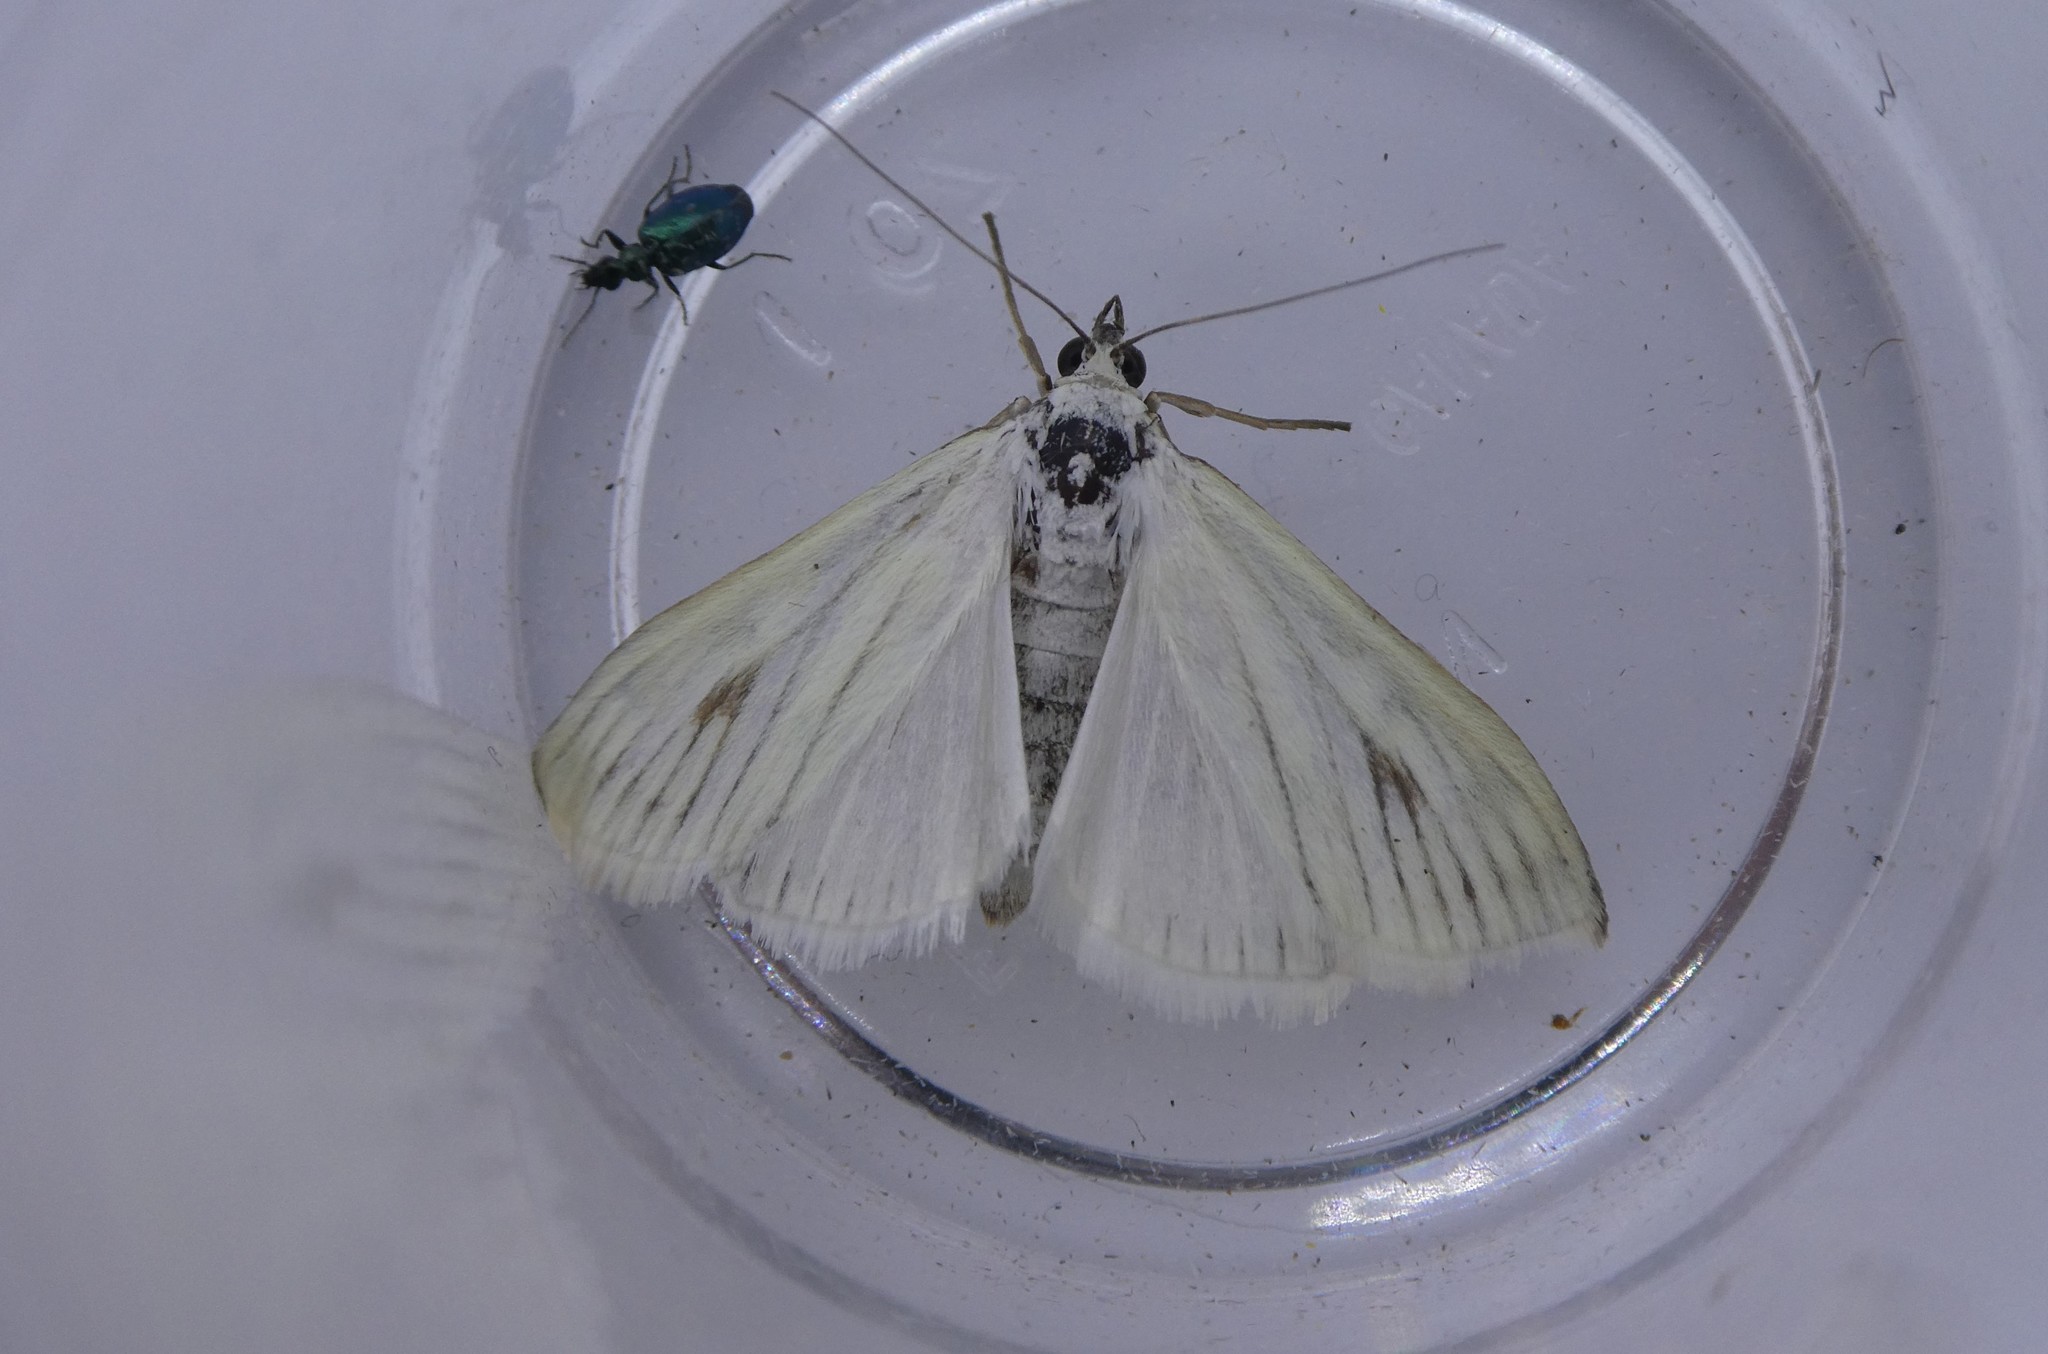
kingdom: Animalia
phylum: Arthropoda
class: Insecta
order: Lepidoptera
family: Crambidae
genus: Sitochroa
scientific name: Sitochroa palealis
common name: Greenish-yellow sitochroa moth
